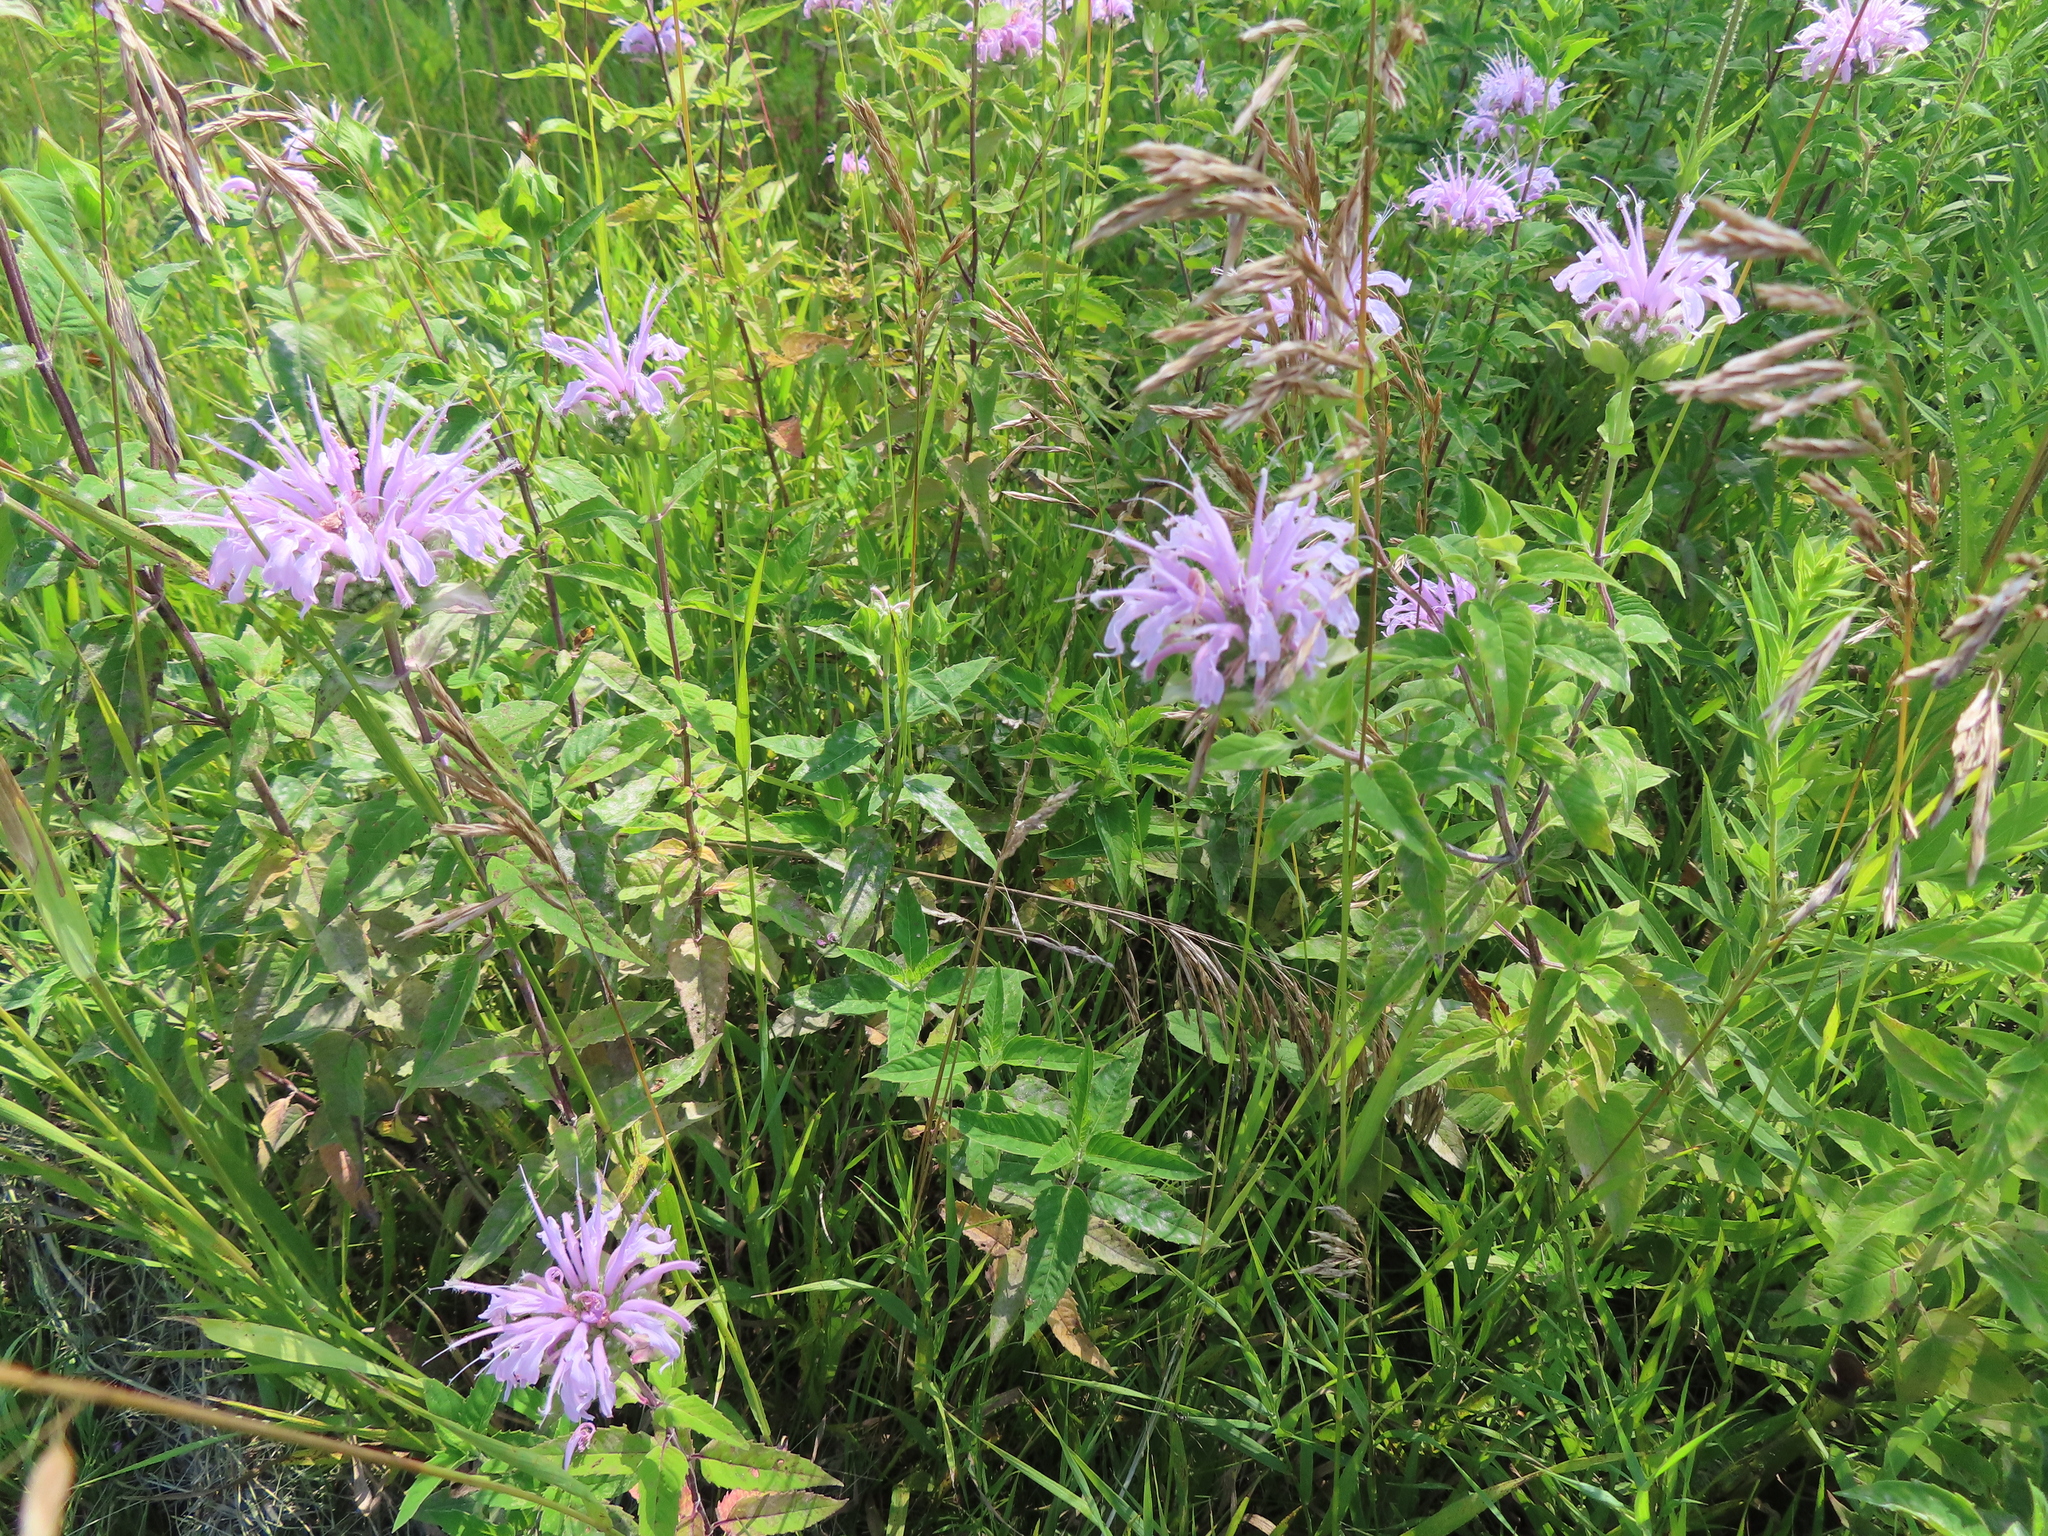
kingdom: Plantae
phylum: Tracheophyta
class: Magnoliopsida
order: Lamiales
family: Lamiaceae
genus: Monarda
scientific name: Monarda fistulosa
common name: Purple beebalm
